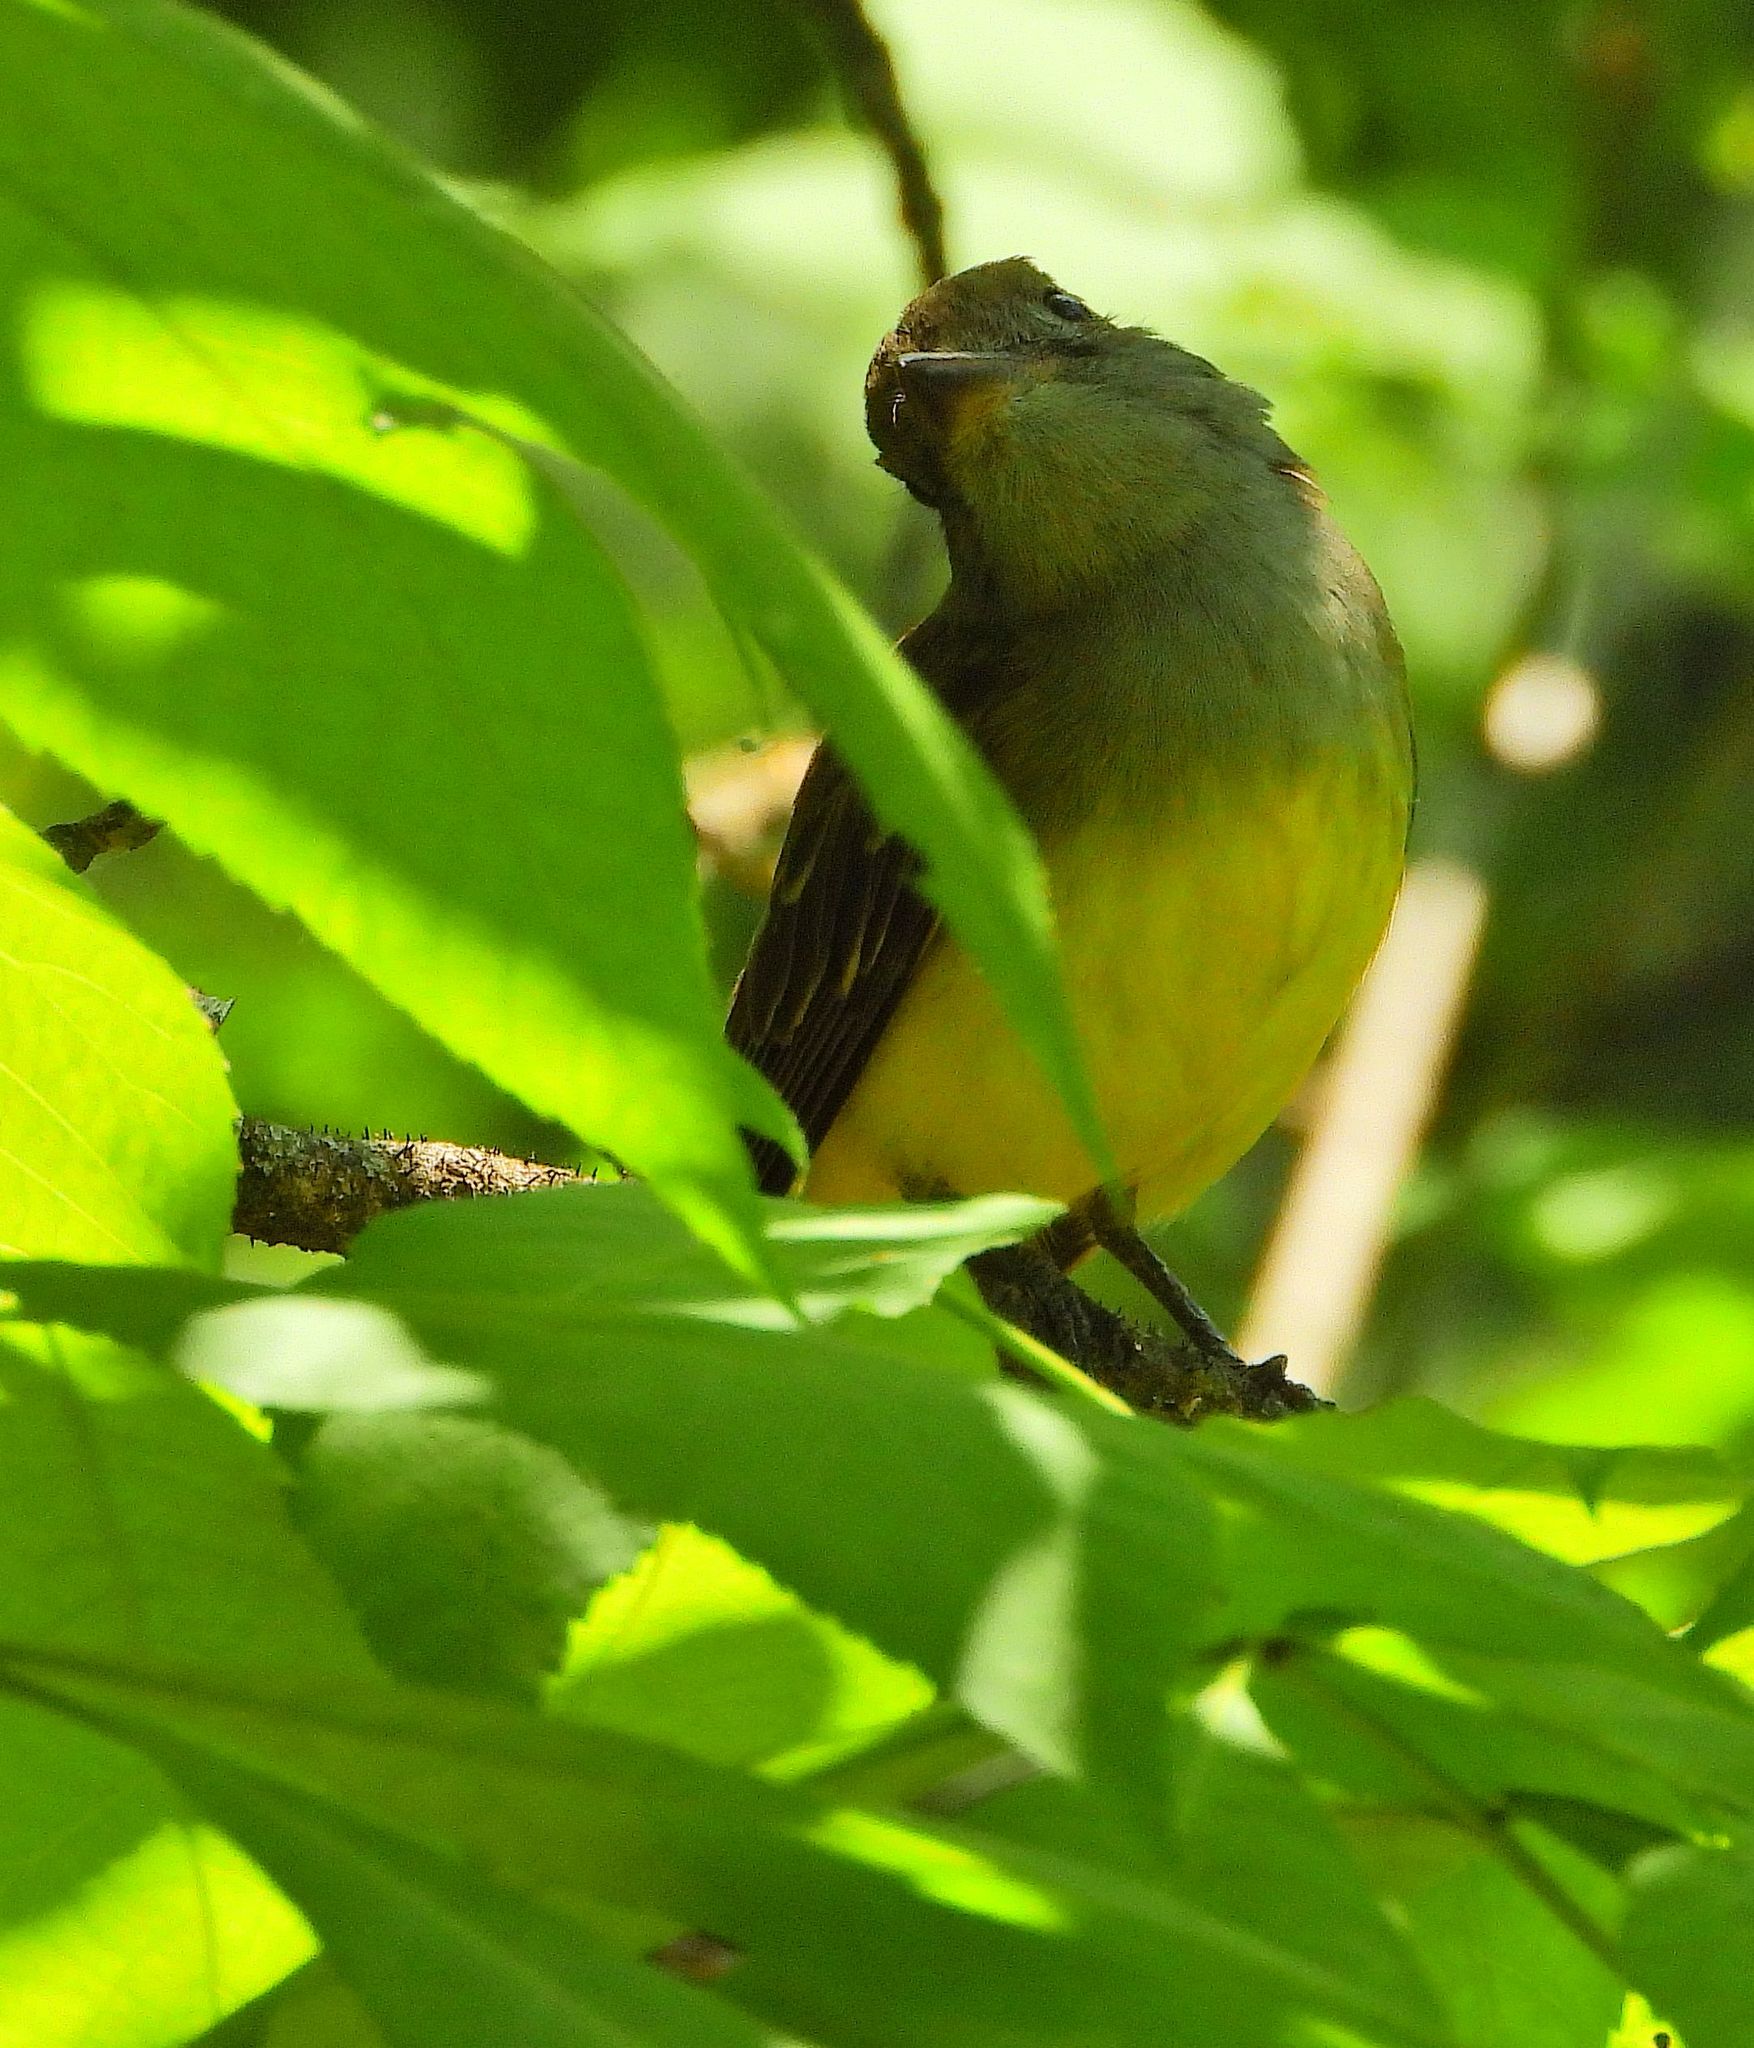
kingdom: Animalia
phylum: Chordata
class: Aves
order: Passeriformes
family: Tyrannidae
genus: Myiarchus
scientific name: Myiarchus crinitus
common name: Great crested flycatcher
